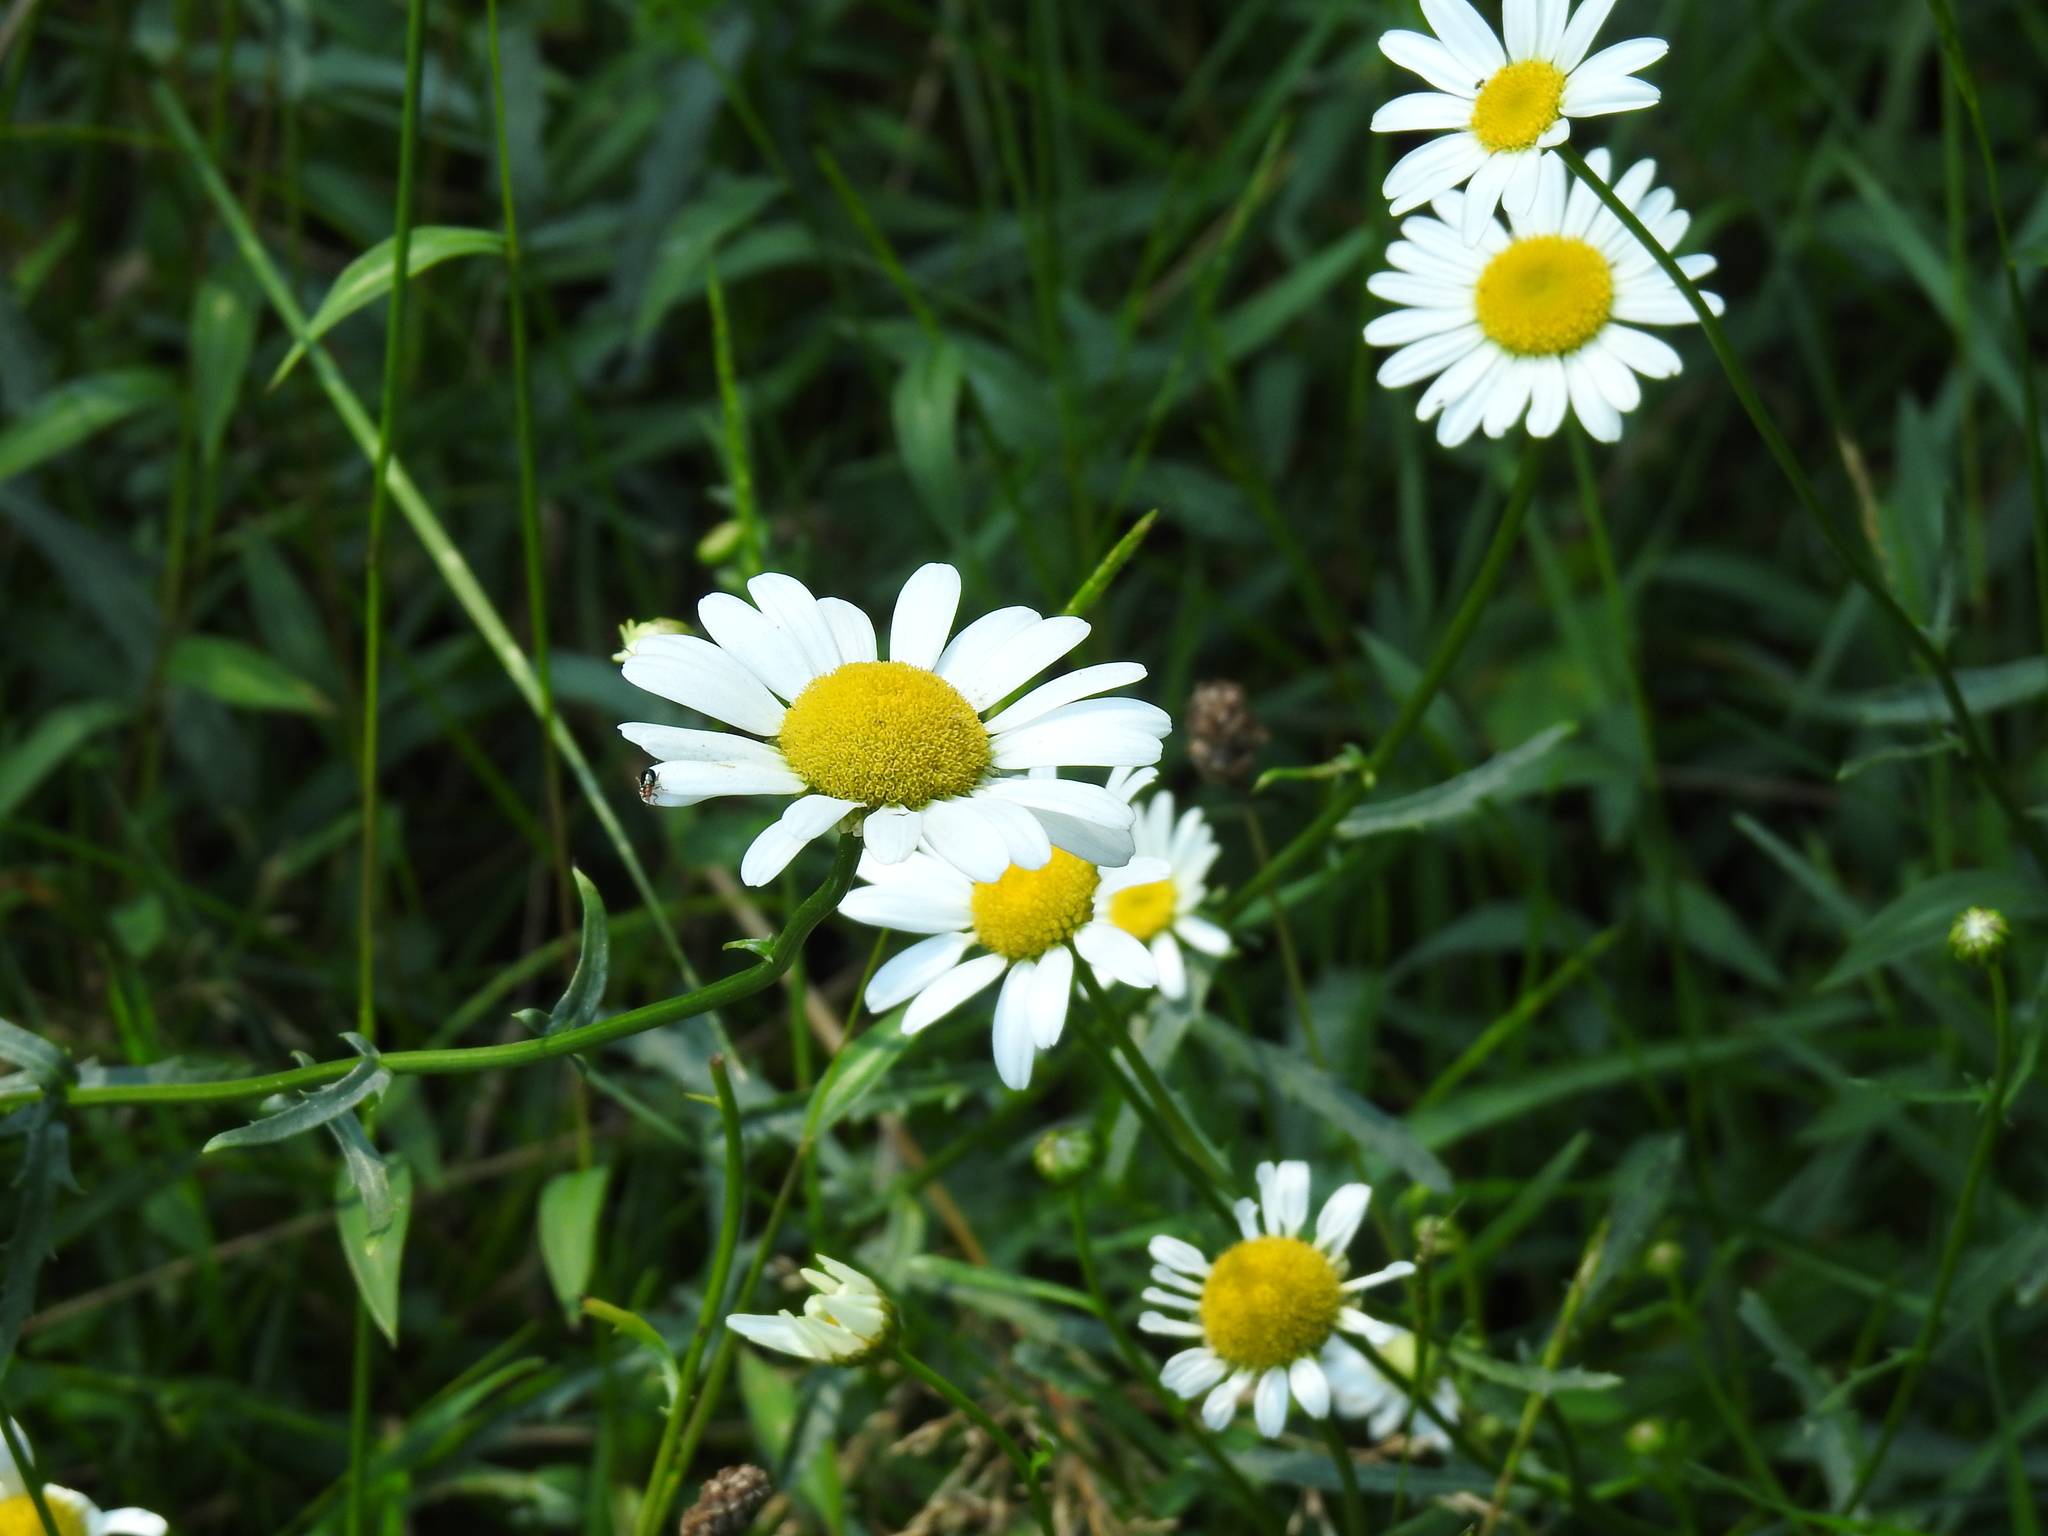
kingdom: Plantae
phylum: Tracheophyta
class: Magnoliopsida
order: Asterales
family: Asteraceae
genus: Leucanthemum
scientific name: Leucanthemum vulgare
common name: Oxeye daisy
